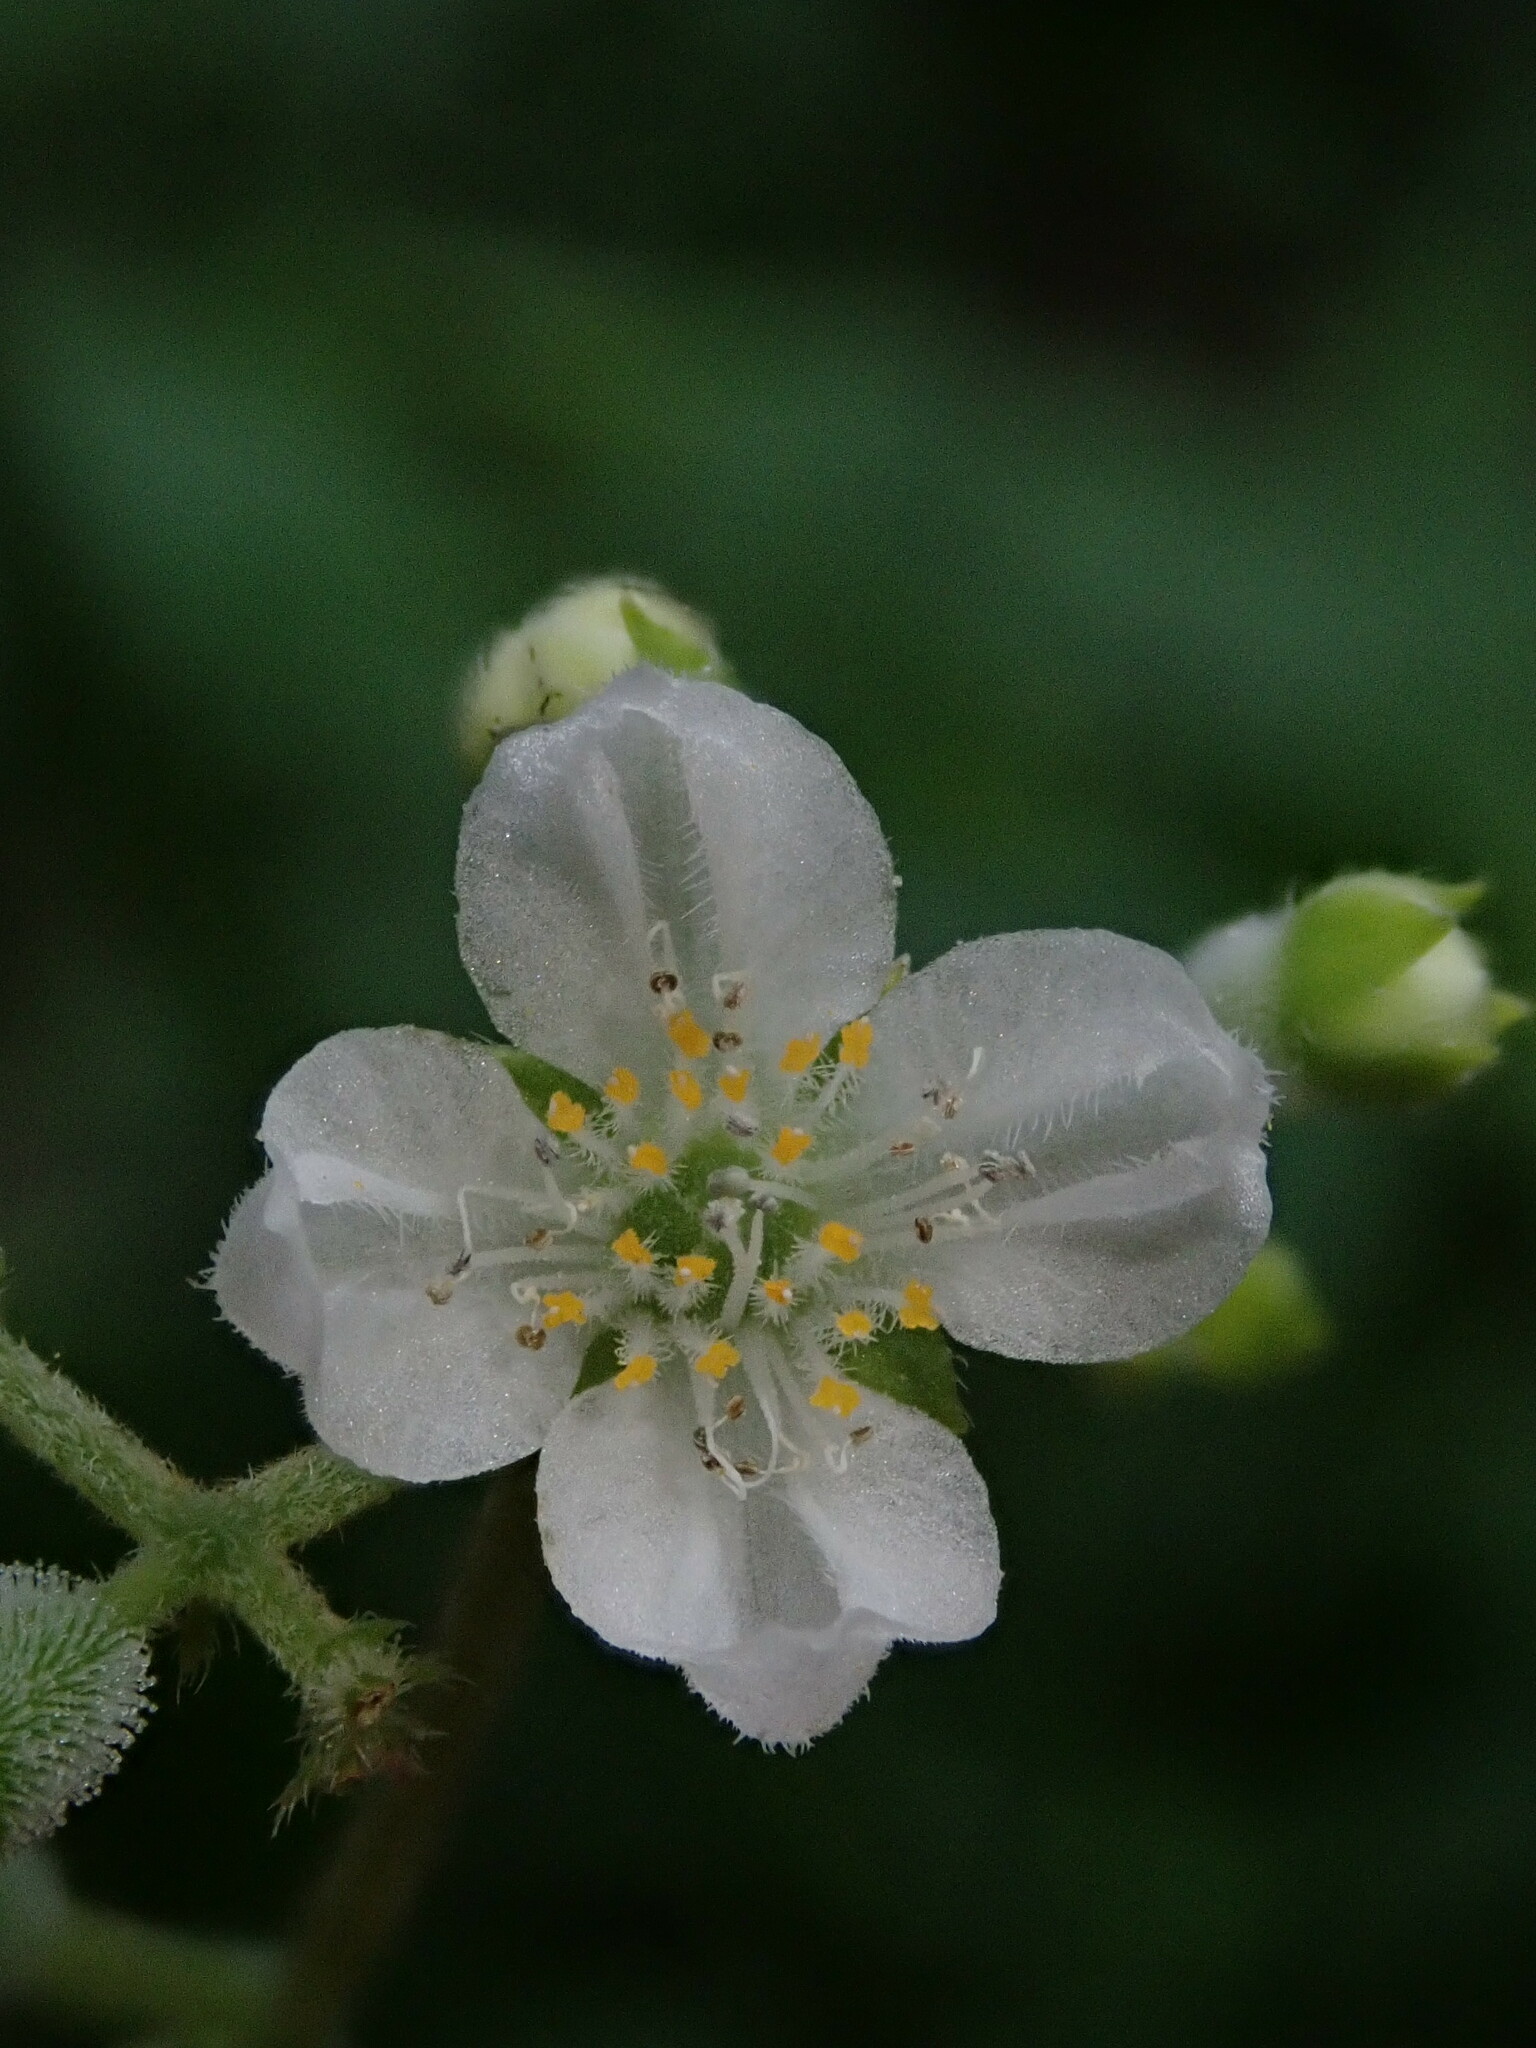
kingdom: Plantae
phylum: Tracheophyta
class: Magnoliopsida
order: Cornales
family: Loasaceae
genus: Klaprothia
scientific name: Klaprothia mentzelioides
